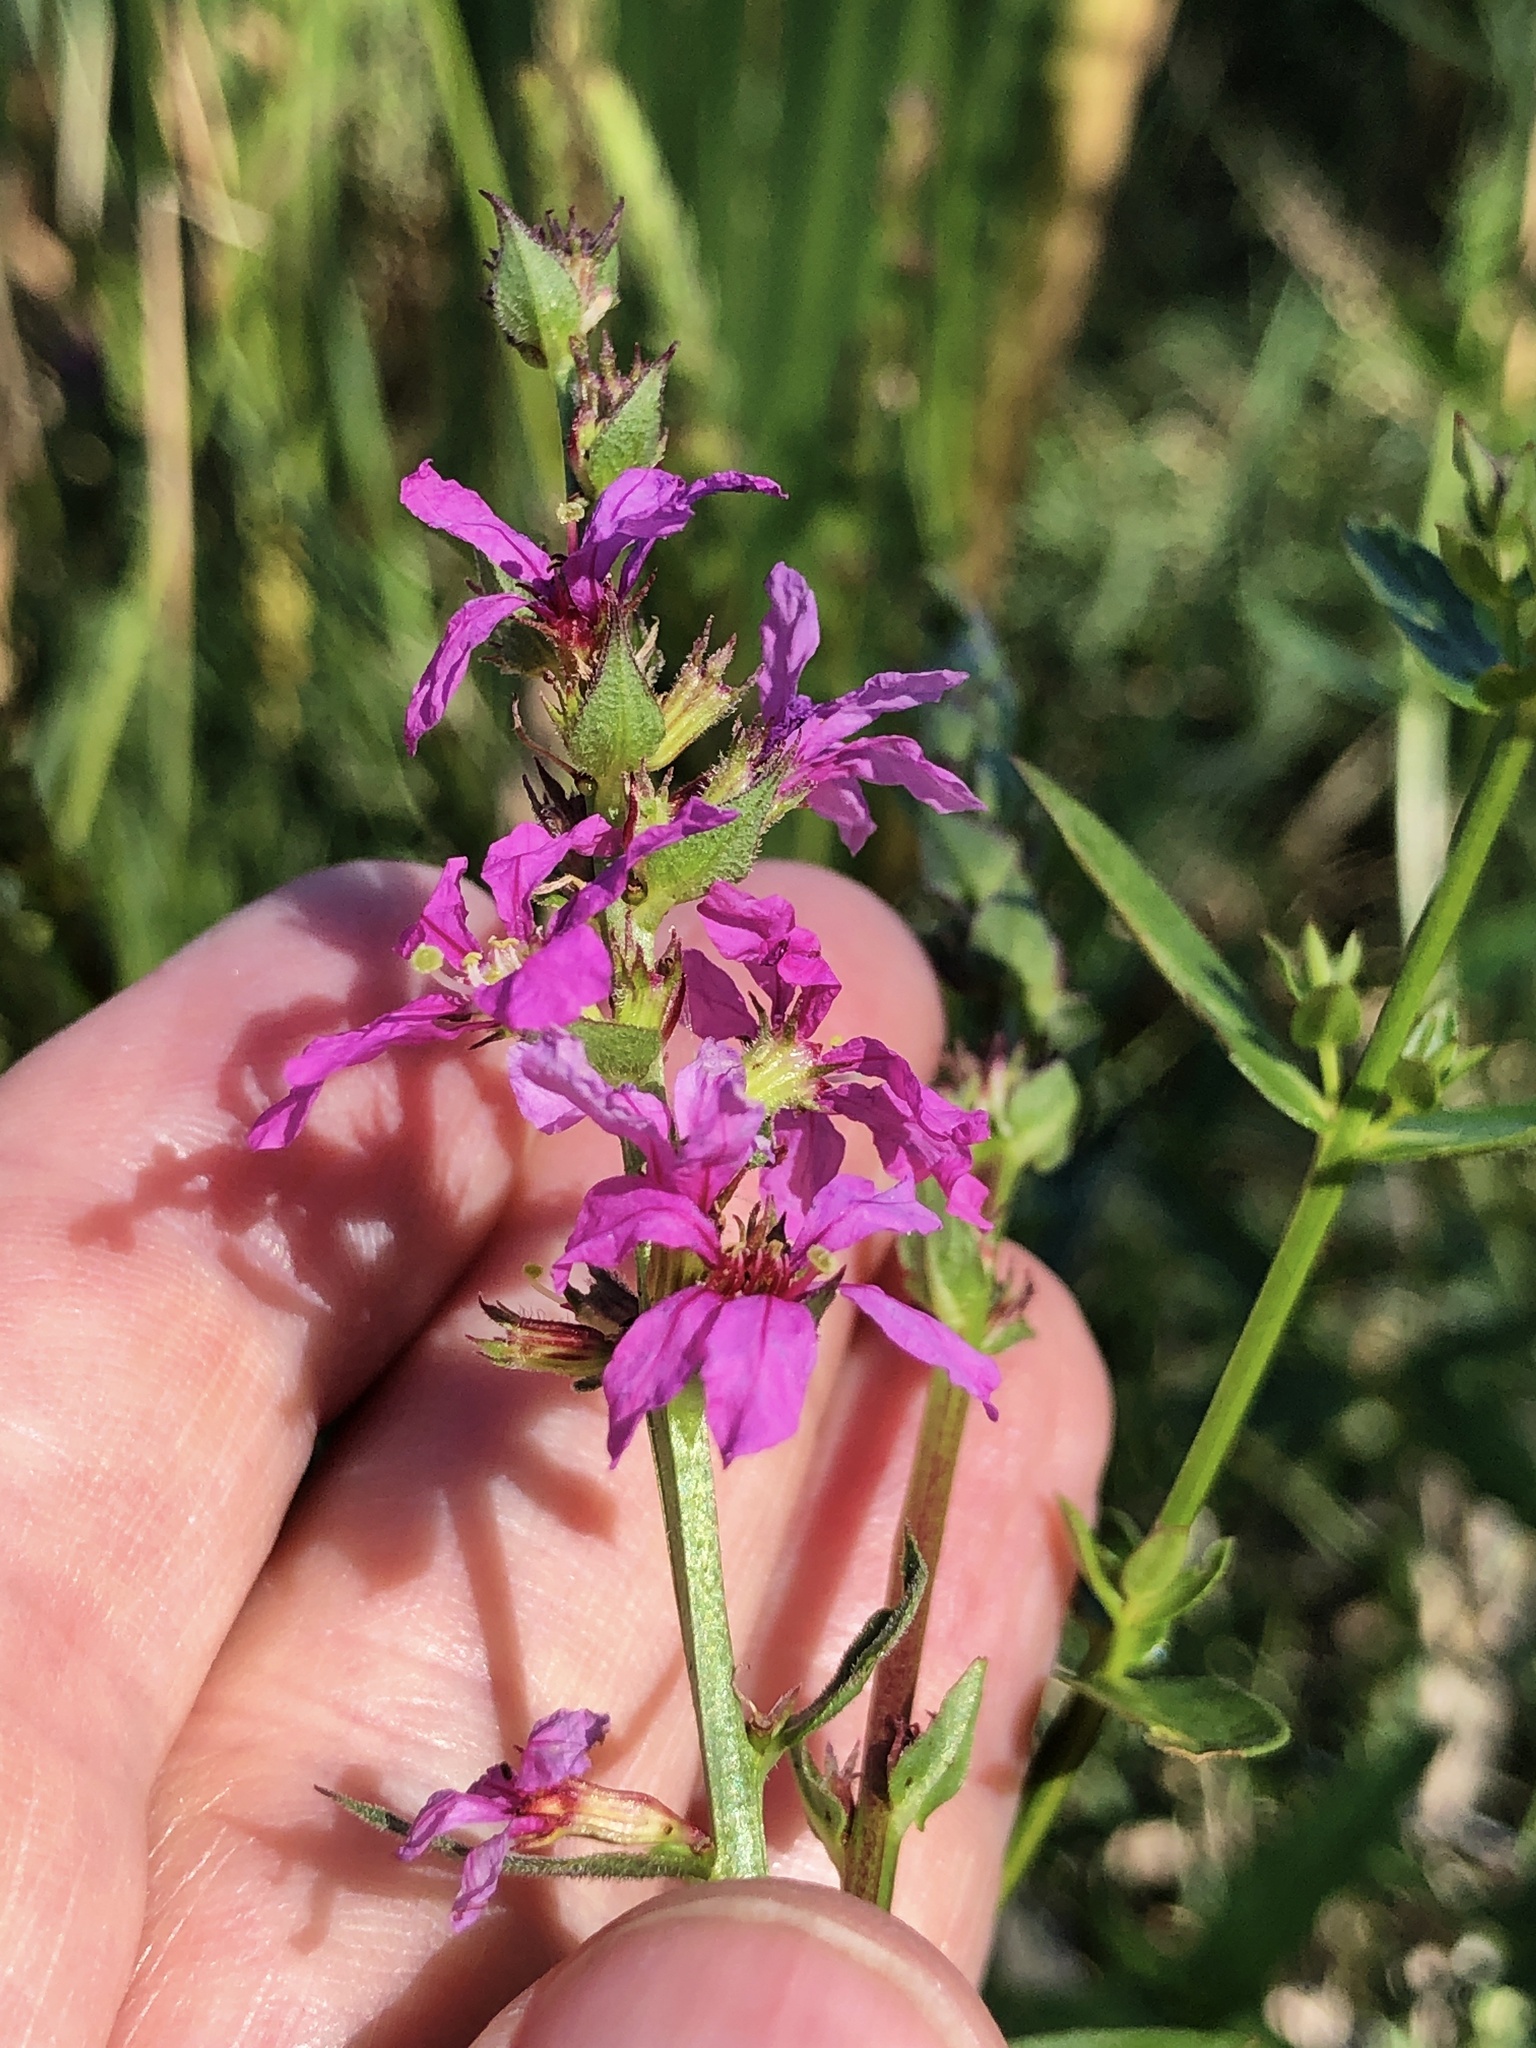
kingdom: Plantae
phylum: Tracheophyta
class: Magnoliopsida
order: Myrtales
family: Lythraceae
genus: Lythrum
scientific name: Lythrum salicaria
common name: Purple loosestrife
